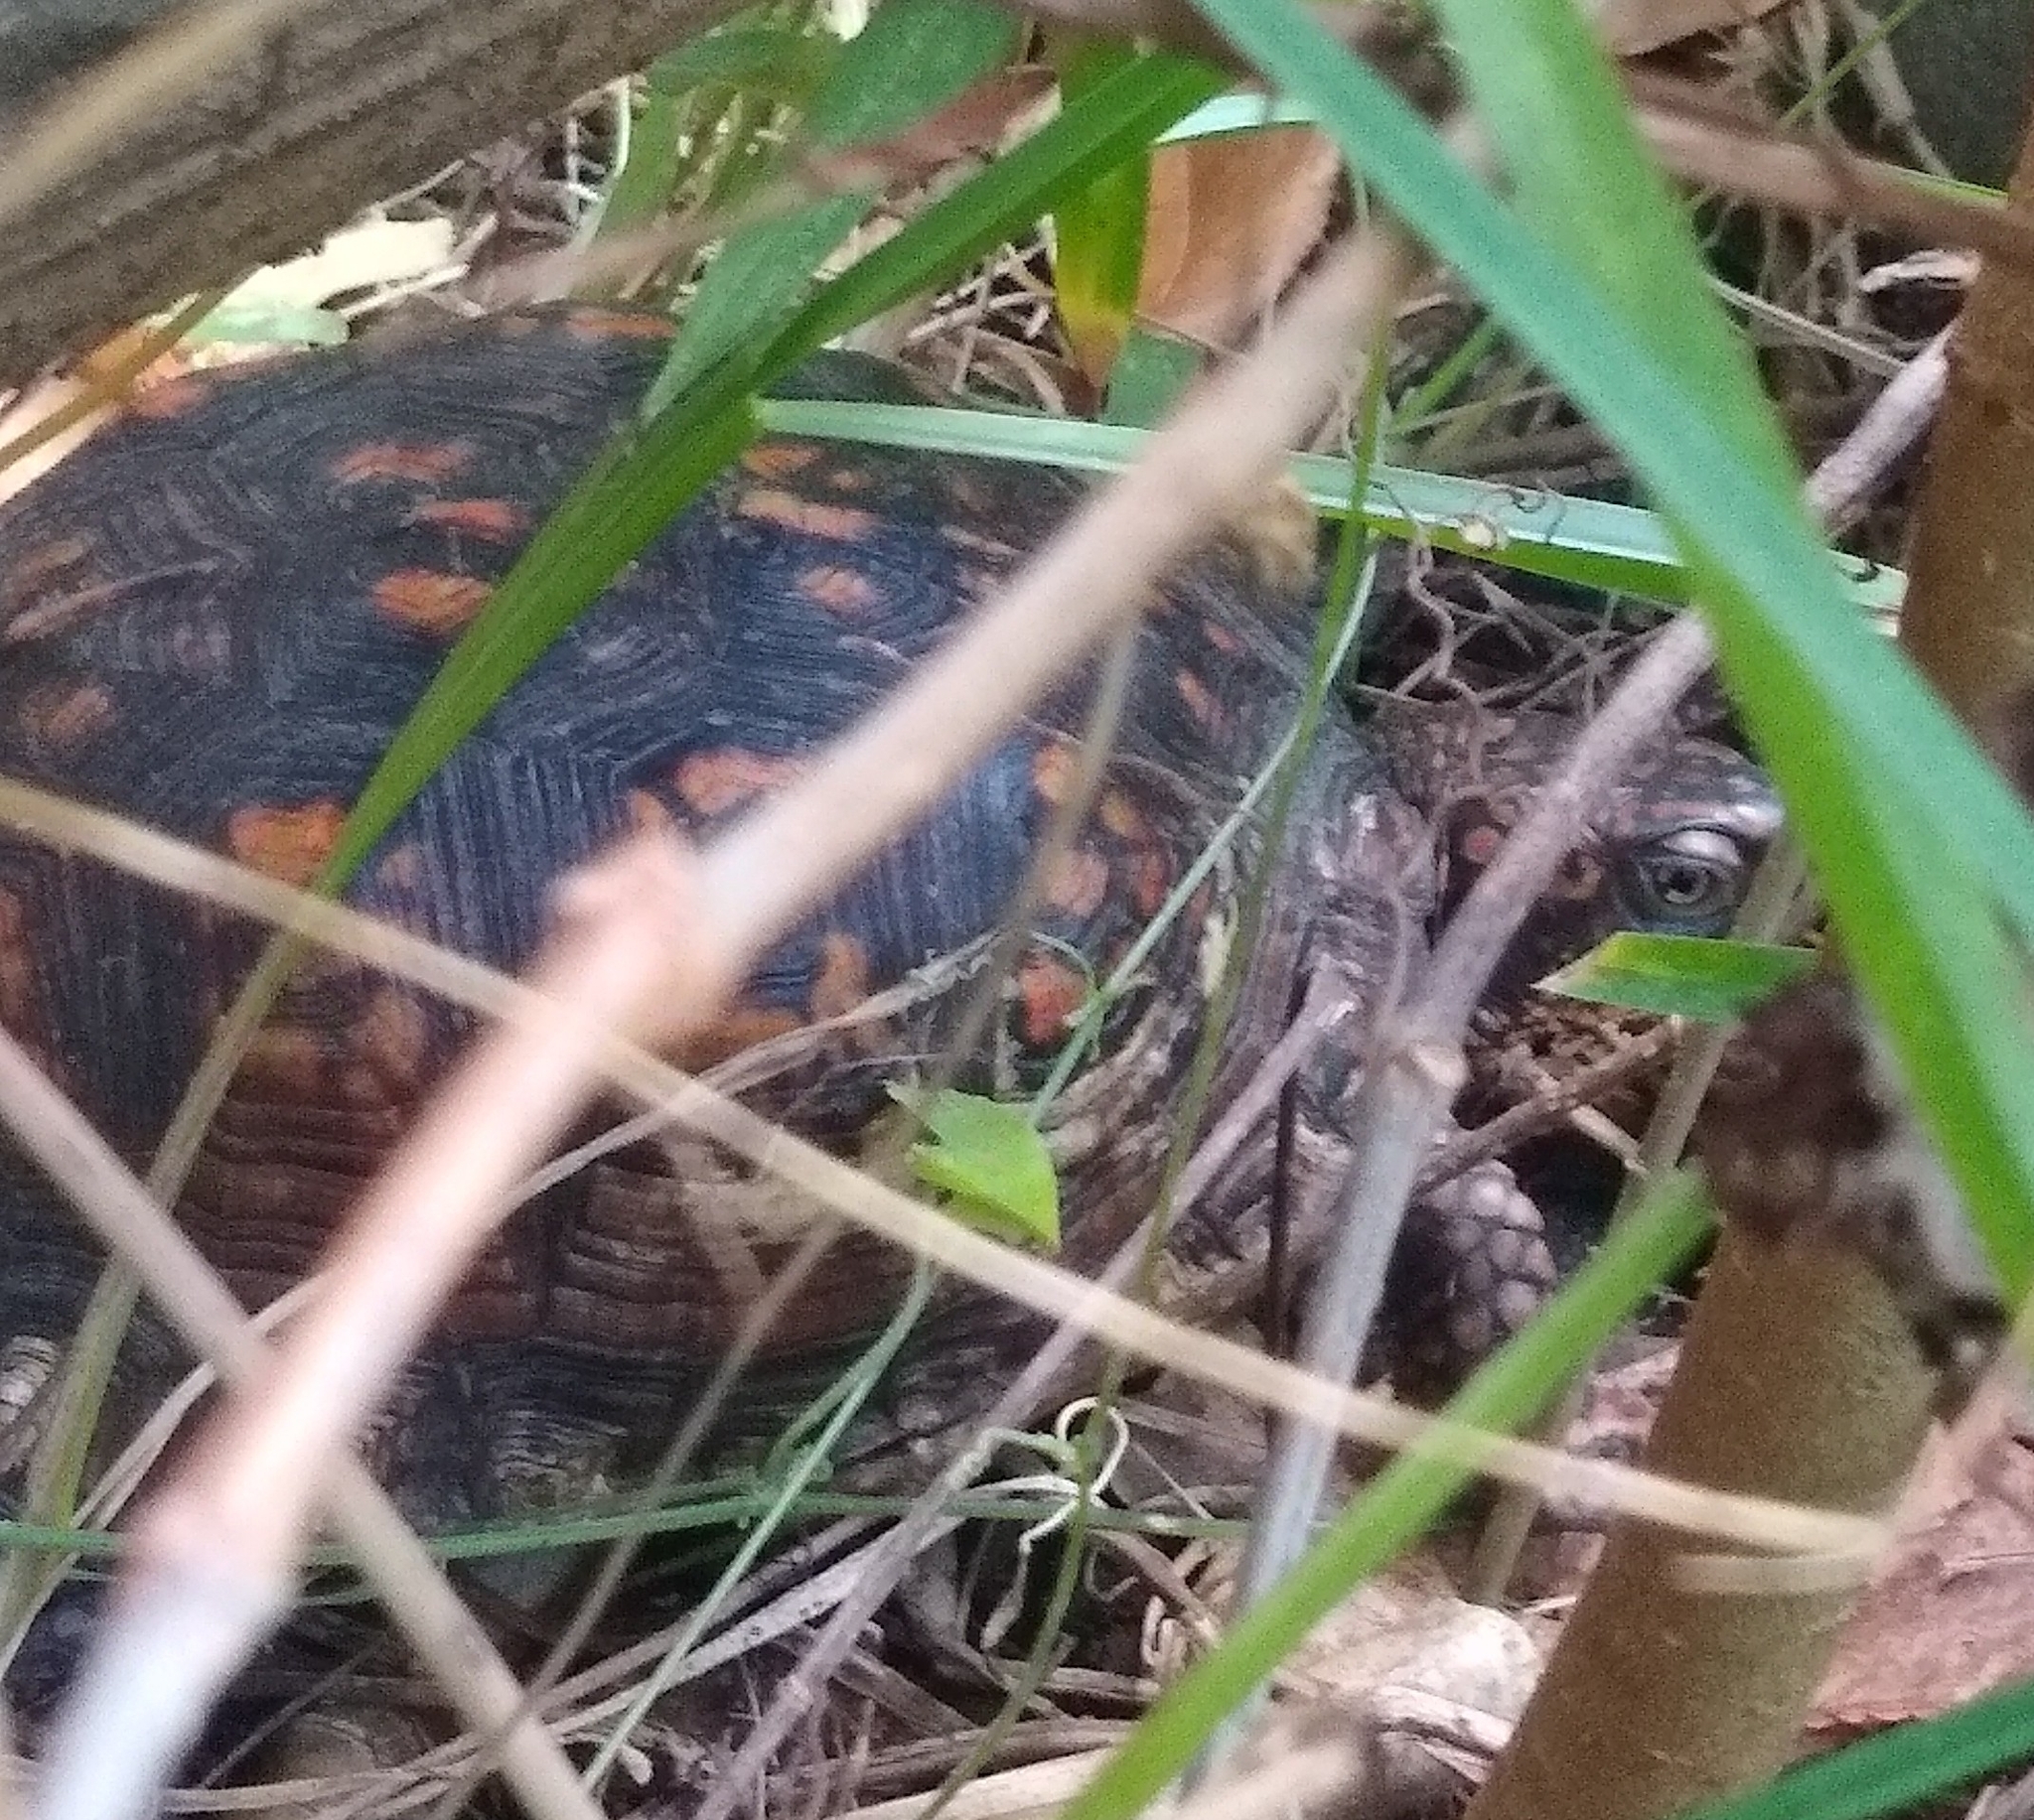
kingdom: Animalia
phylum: Chordata
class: Testudines
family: Emydidae
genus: Terrapene
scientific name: Terrapene carolina
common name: Common box turtle
